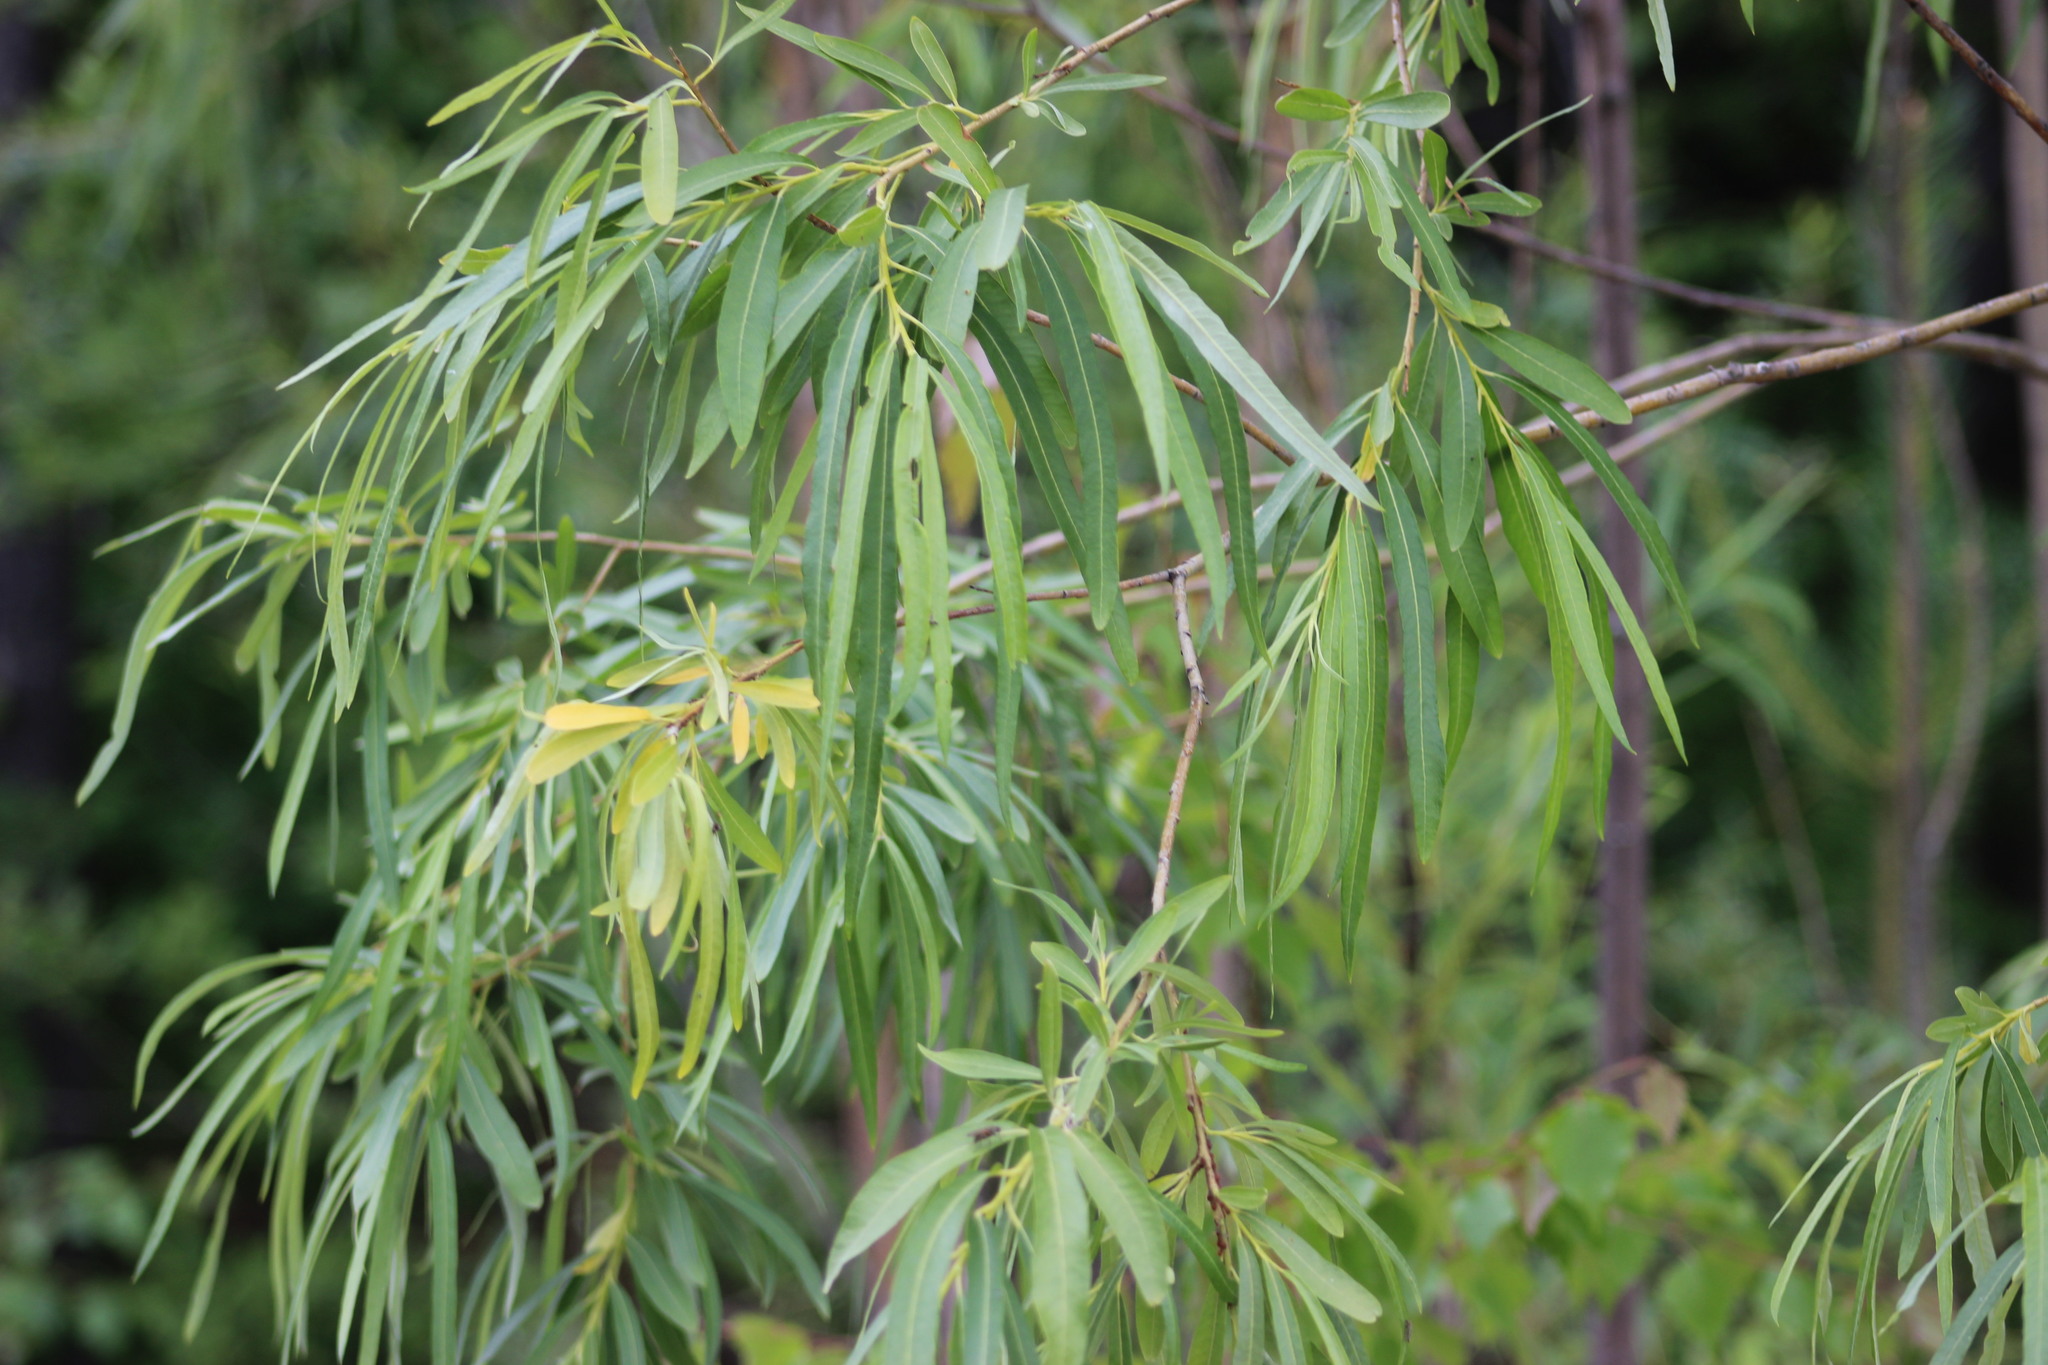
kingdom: Plantae
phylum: Tracheophyta
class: Magnoliopsida
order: Malpighiales
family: Salicaceae
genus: Salix
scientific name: Salix viminalis
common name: Osier
